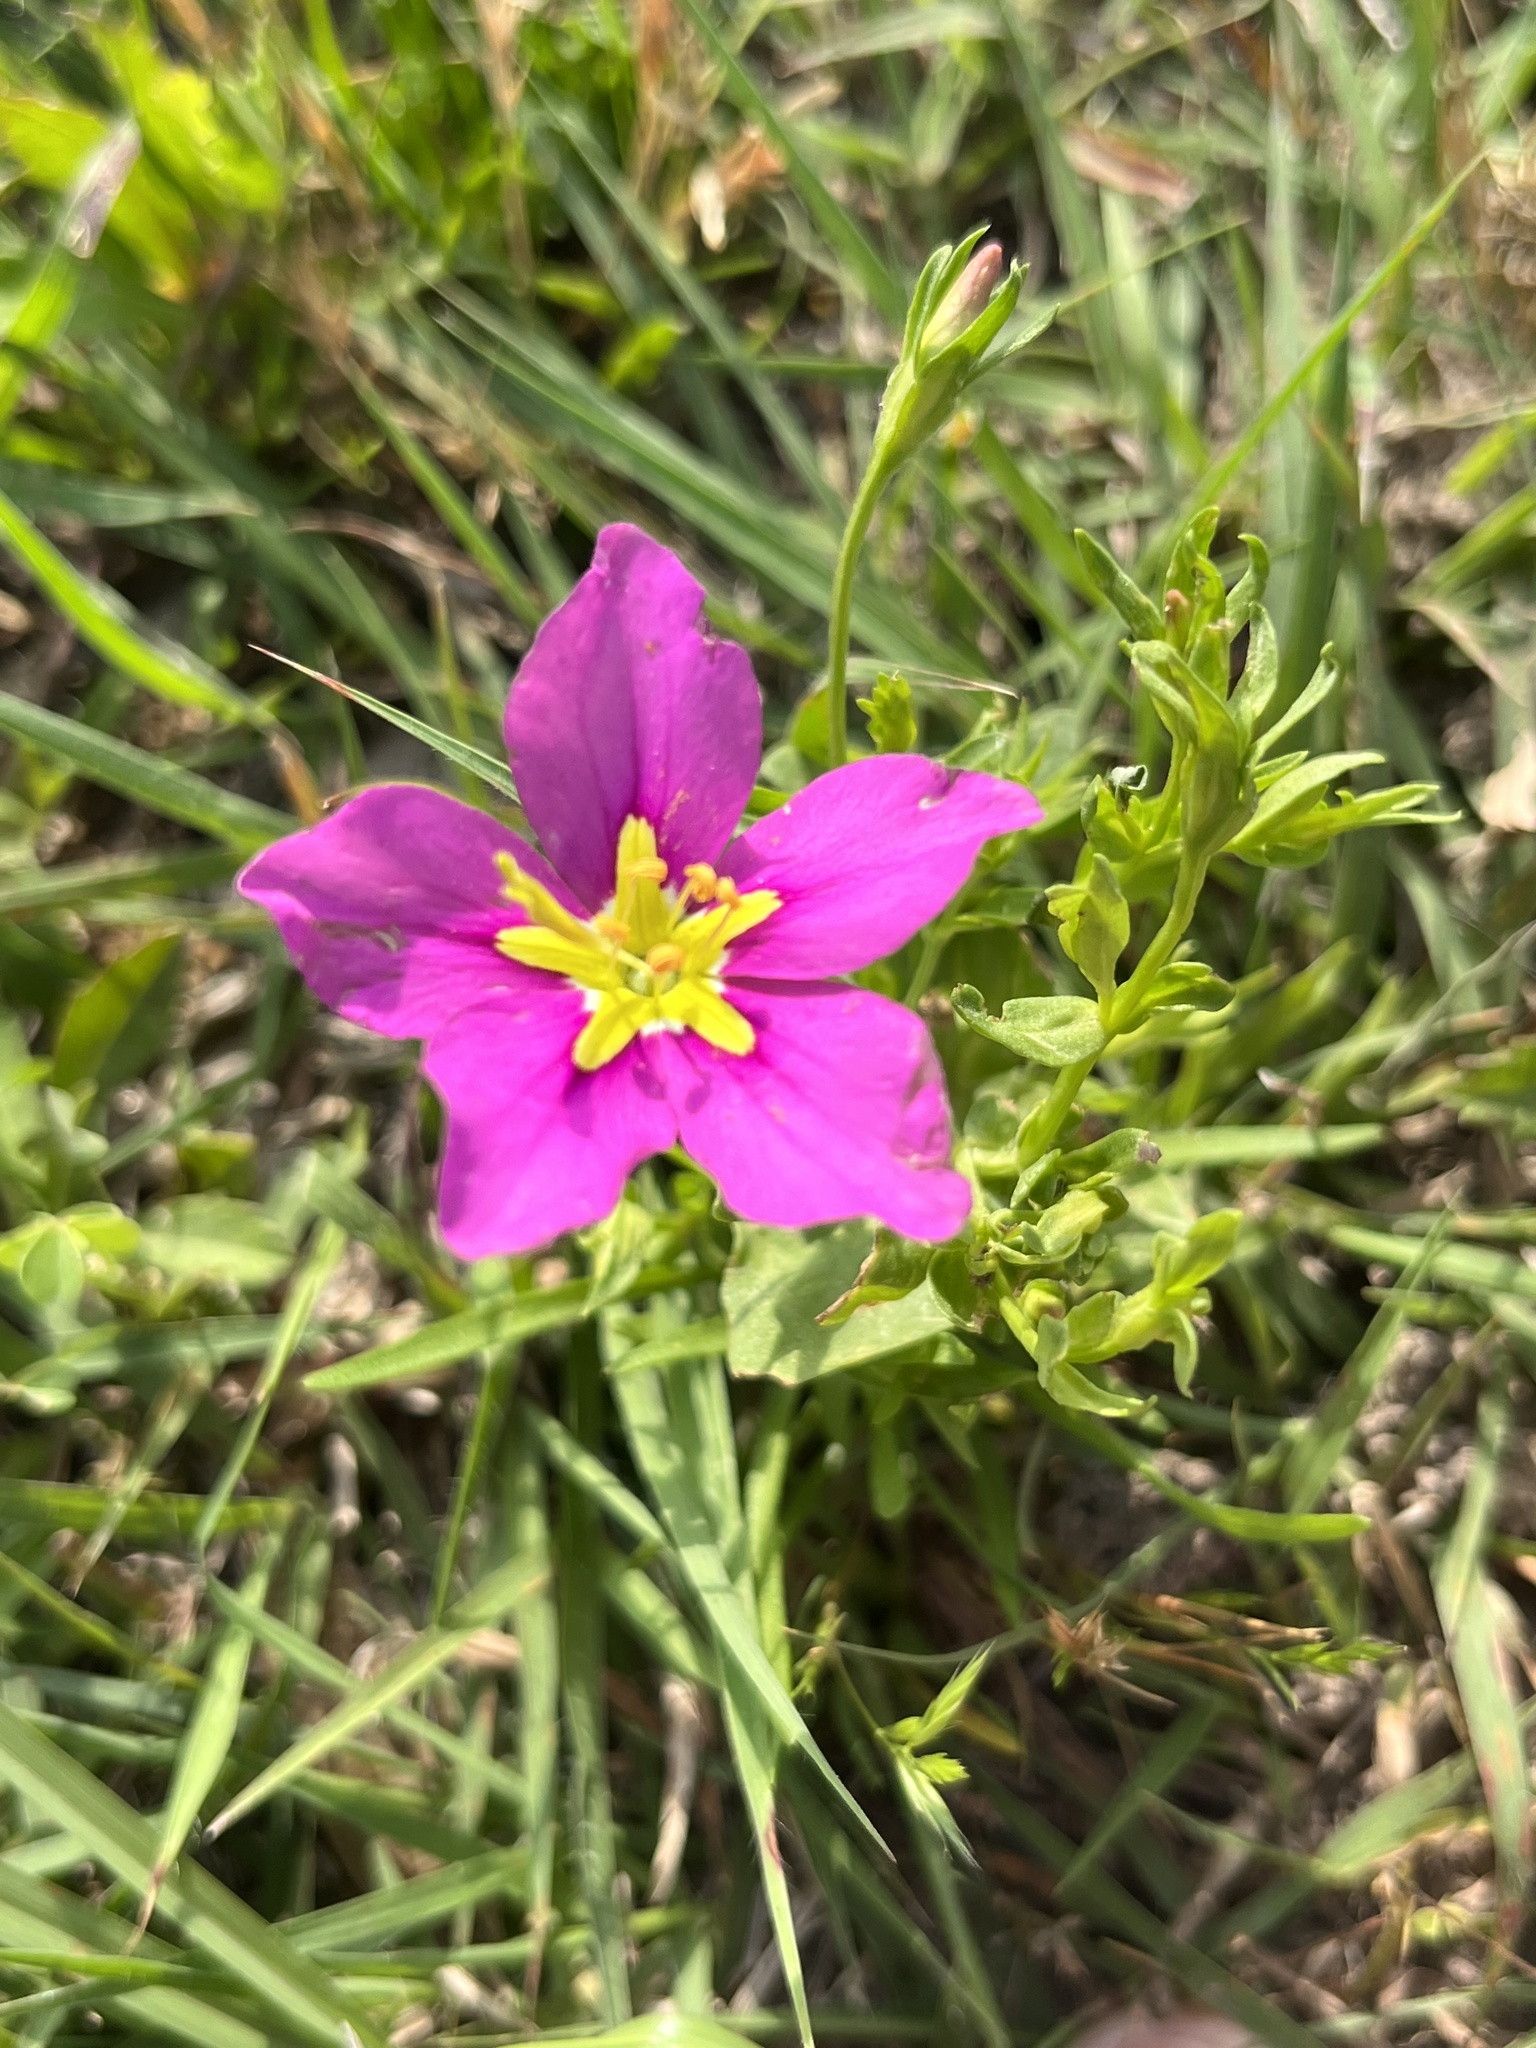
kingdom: Plantae
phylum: Tracheophyta
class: Magnoliopsida
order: Gentianales
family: Gentianaceae
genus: Sabatia
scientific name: Sabatia campestris
